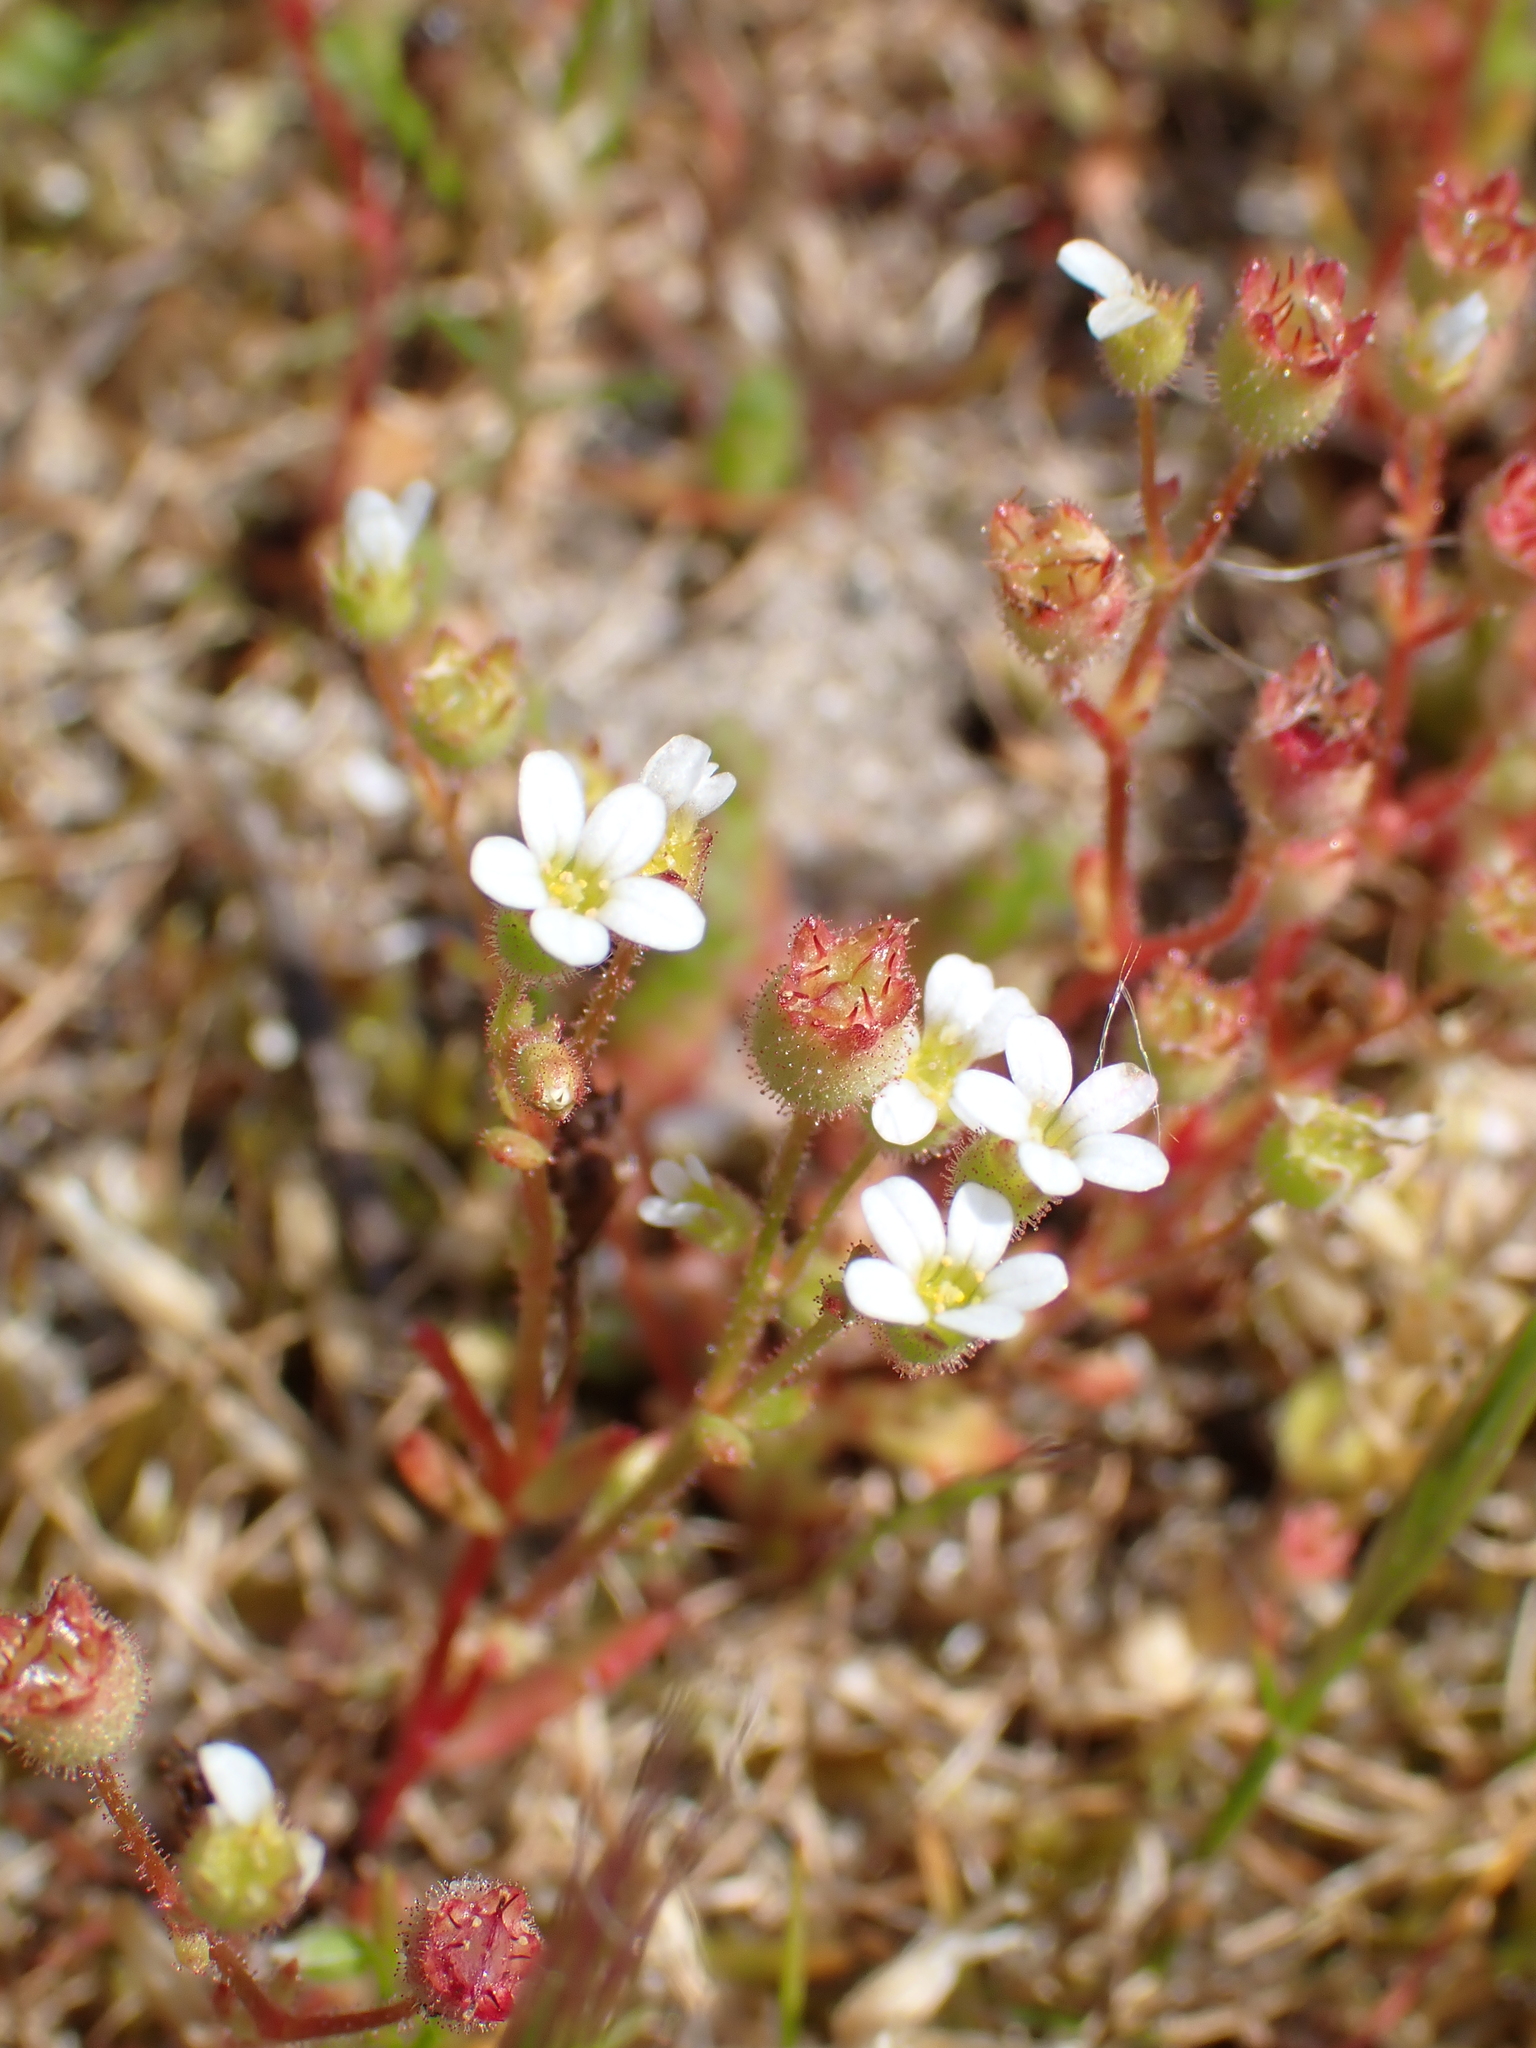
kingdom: Plantae
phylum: Tracheophyta
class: Magnoliopsida
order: Saxifragales
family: Saxifragaceae
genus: Saxifraga
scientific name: Saxifraga tridactylites
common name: Rue-leaved saxifrage
